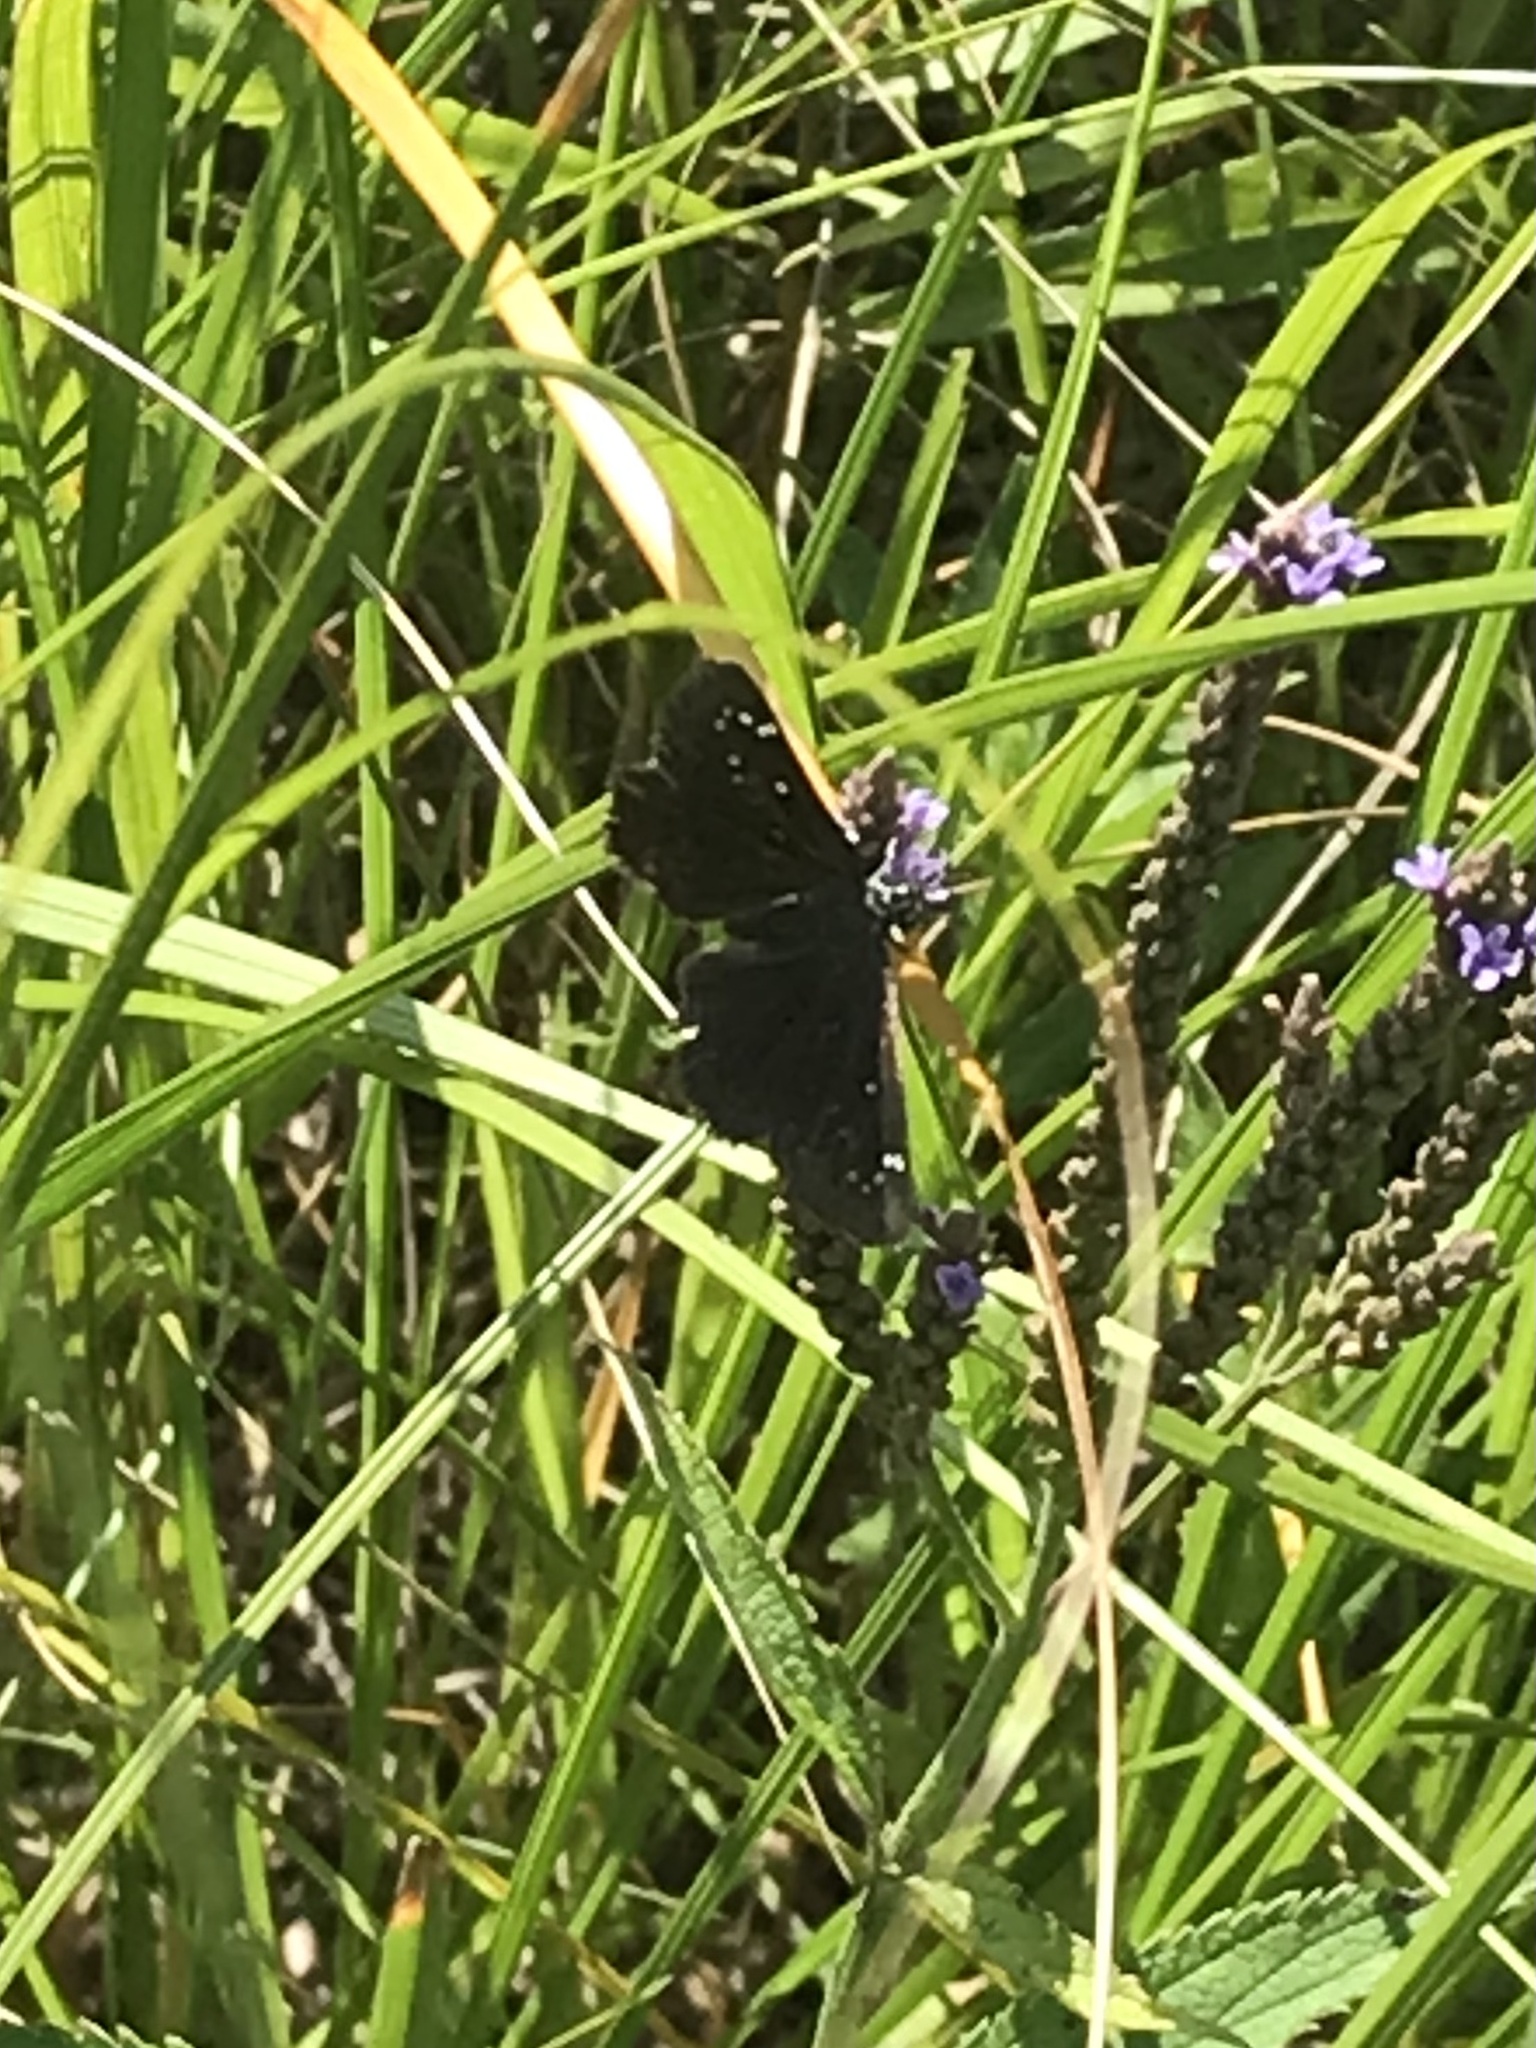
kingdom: Animalia
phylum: Arthropoda
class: Insecta
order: Lepidoptera
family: Hesperiidae
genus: Pholisora
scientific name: Pholisora catullus
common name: Common sootywing
